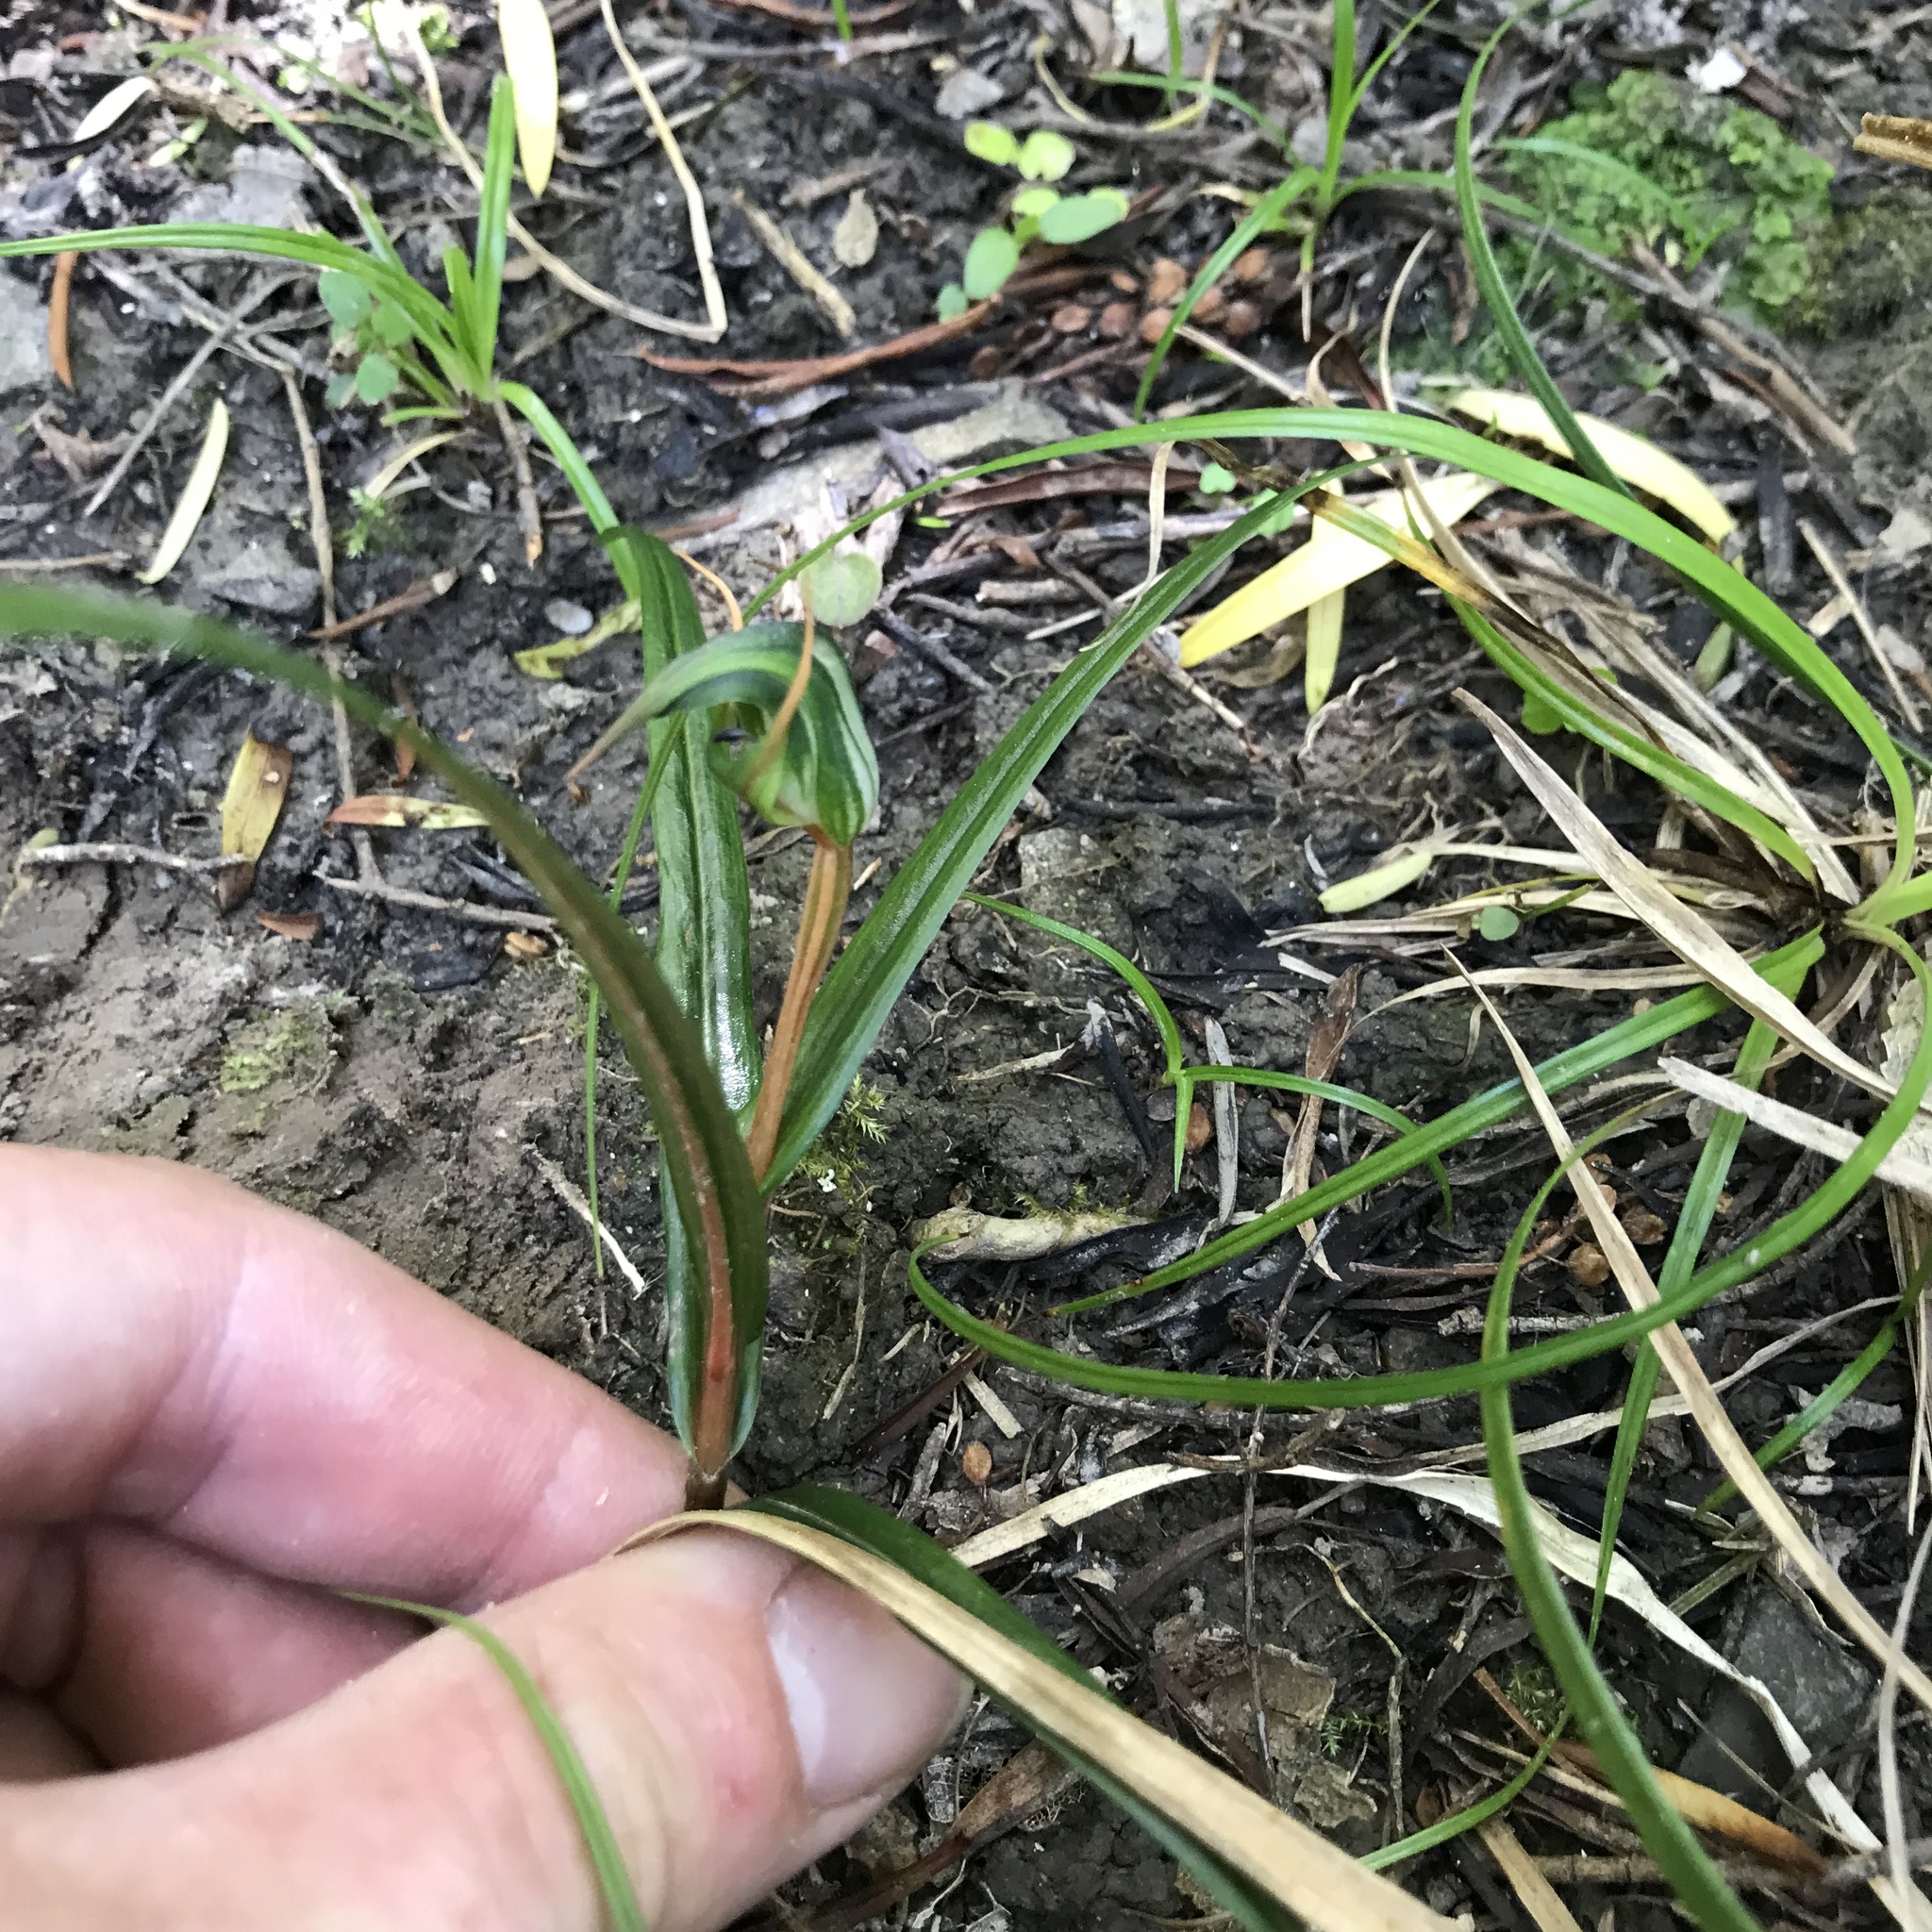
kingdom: Plantae
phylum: Tracheophyta
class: Liliopsida
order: Asparagales
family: Orchidaceae
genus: Pterostylis
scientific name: Pterostylis graminea
